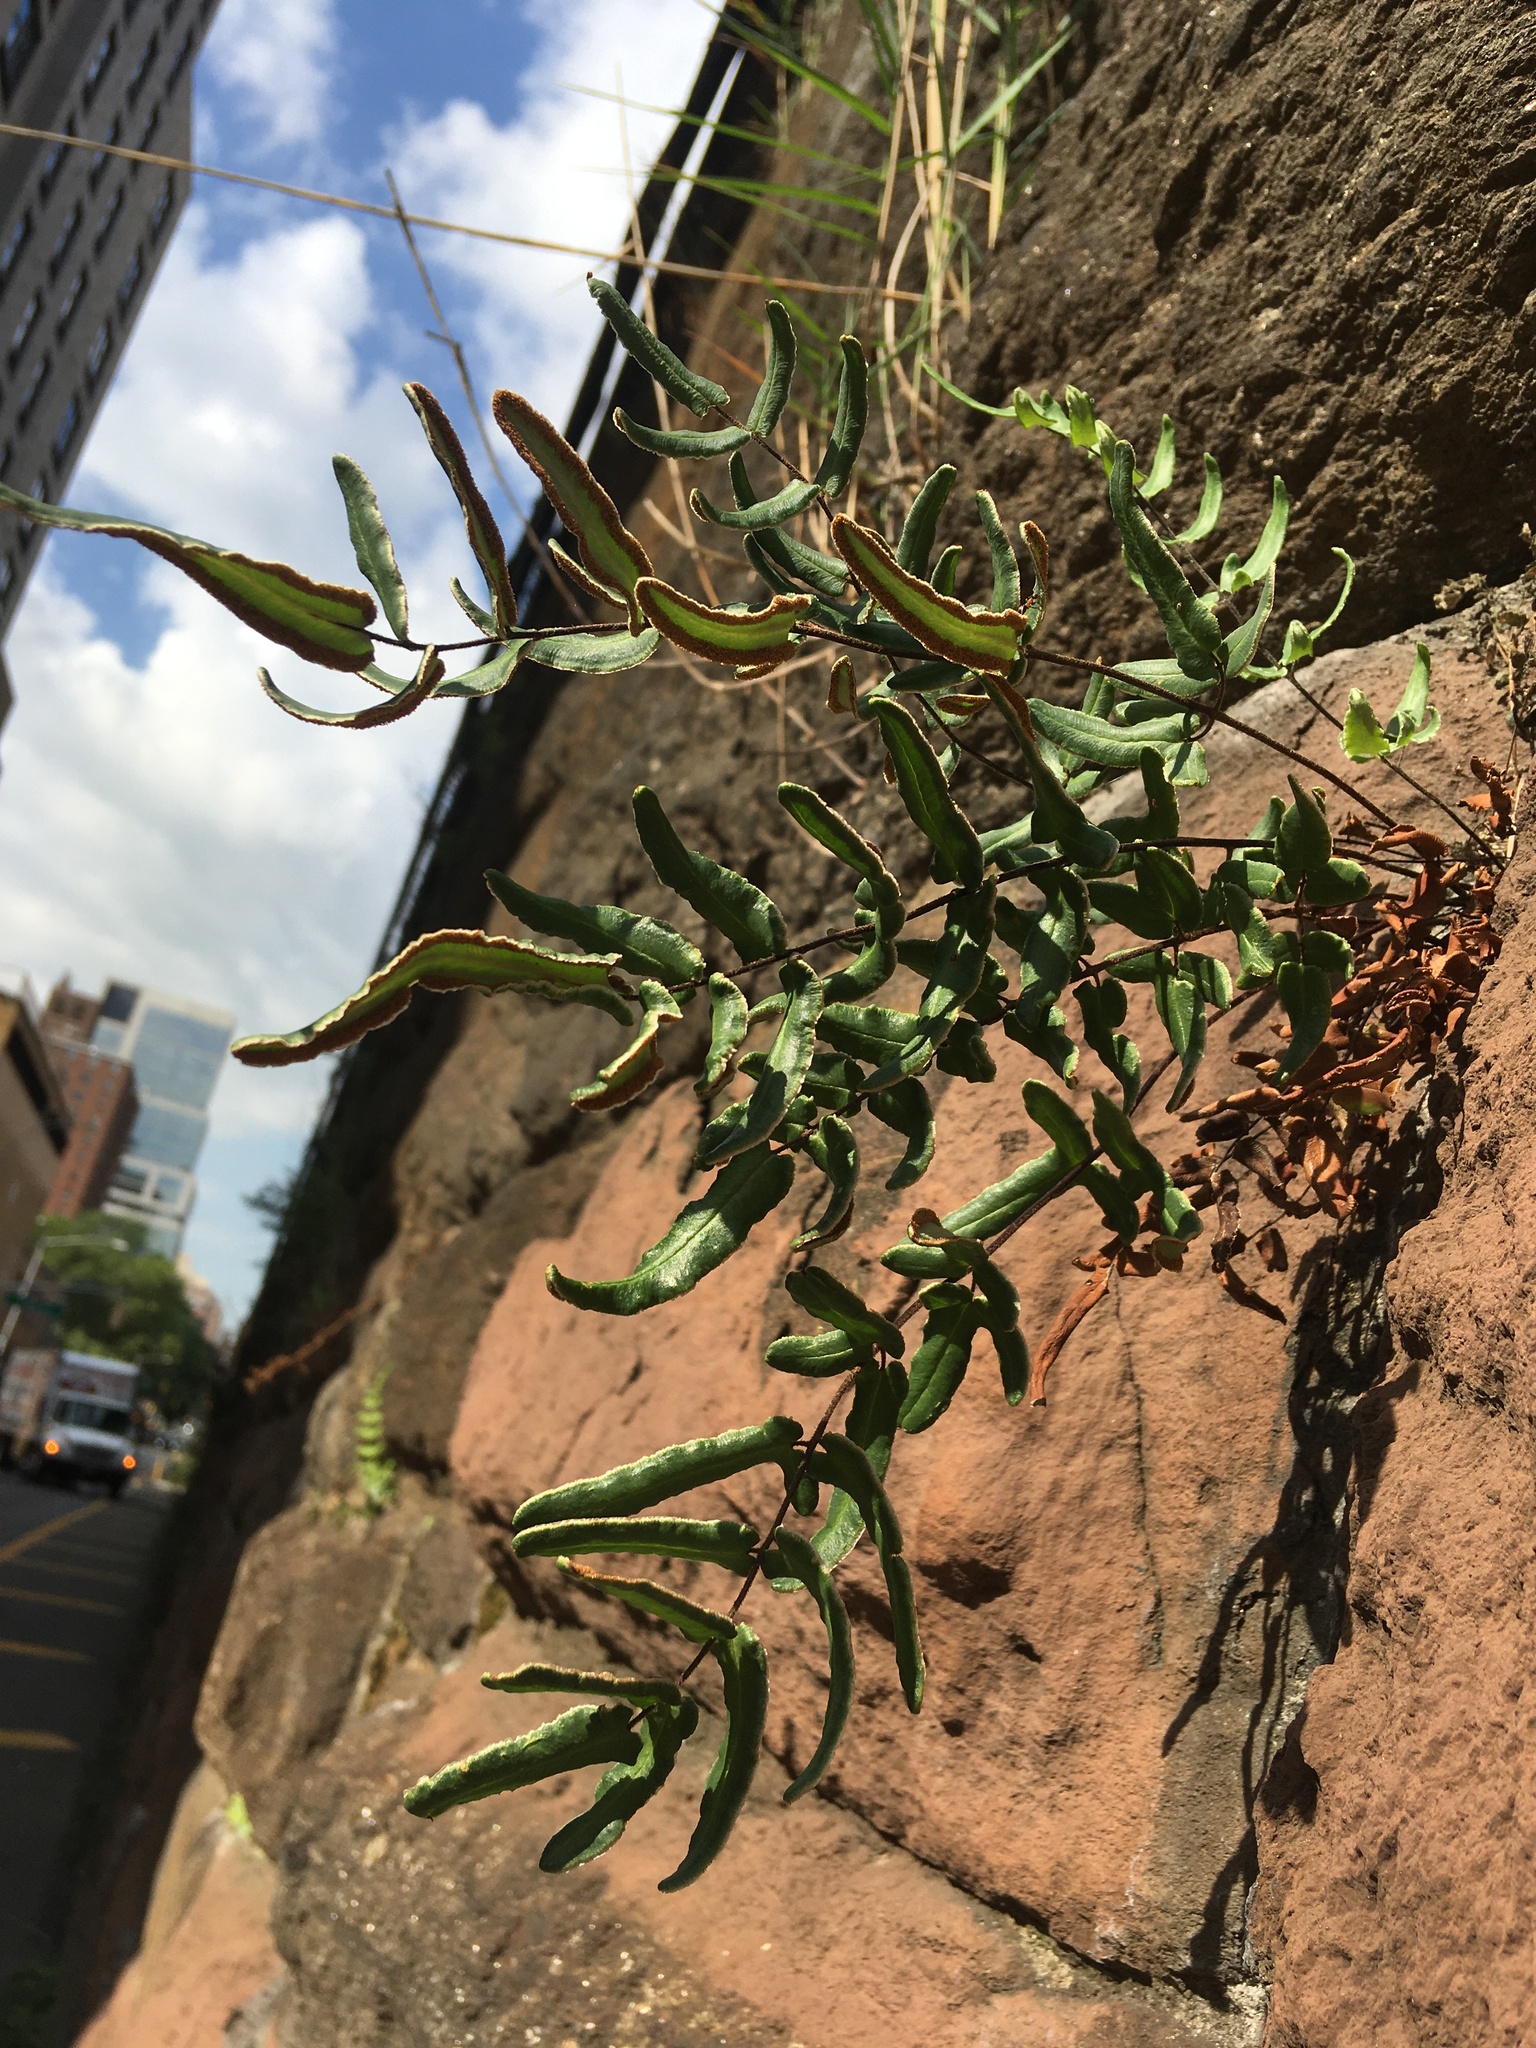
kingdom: Plantae
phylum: Tracheophyta
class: Polypodiopsida
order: Polypodiales
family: Pteridaceae
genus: Pellaea
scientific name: Pellaea atropurpurea
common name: Hairy cliffbrake
